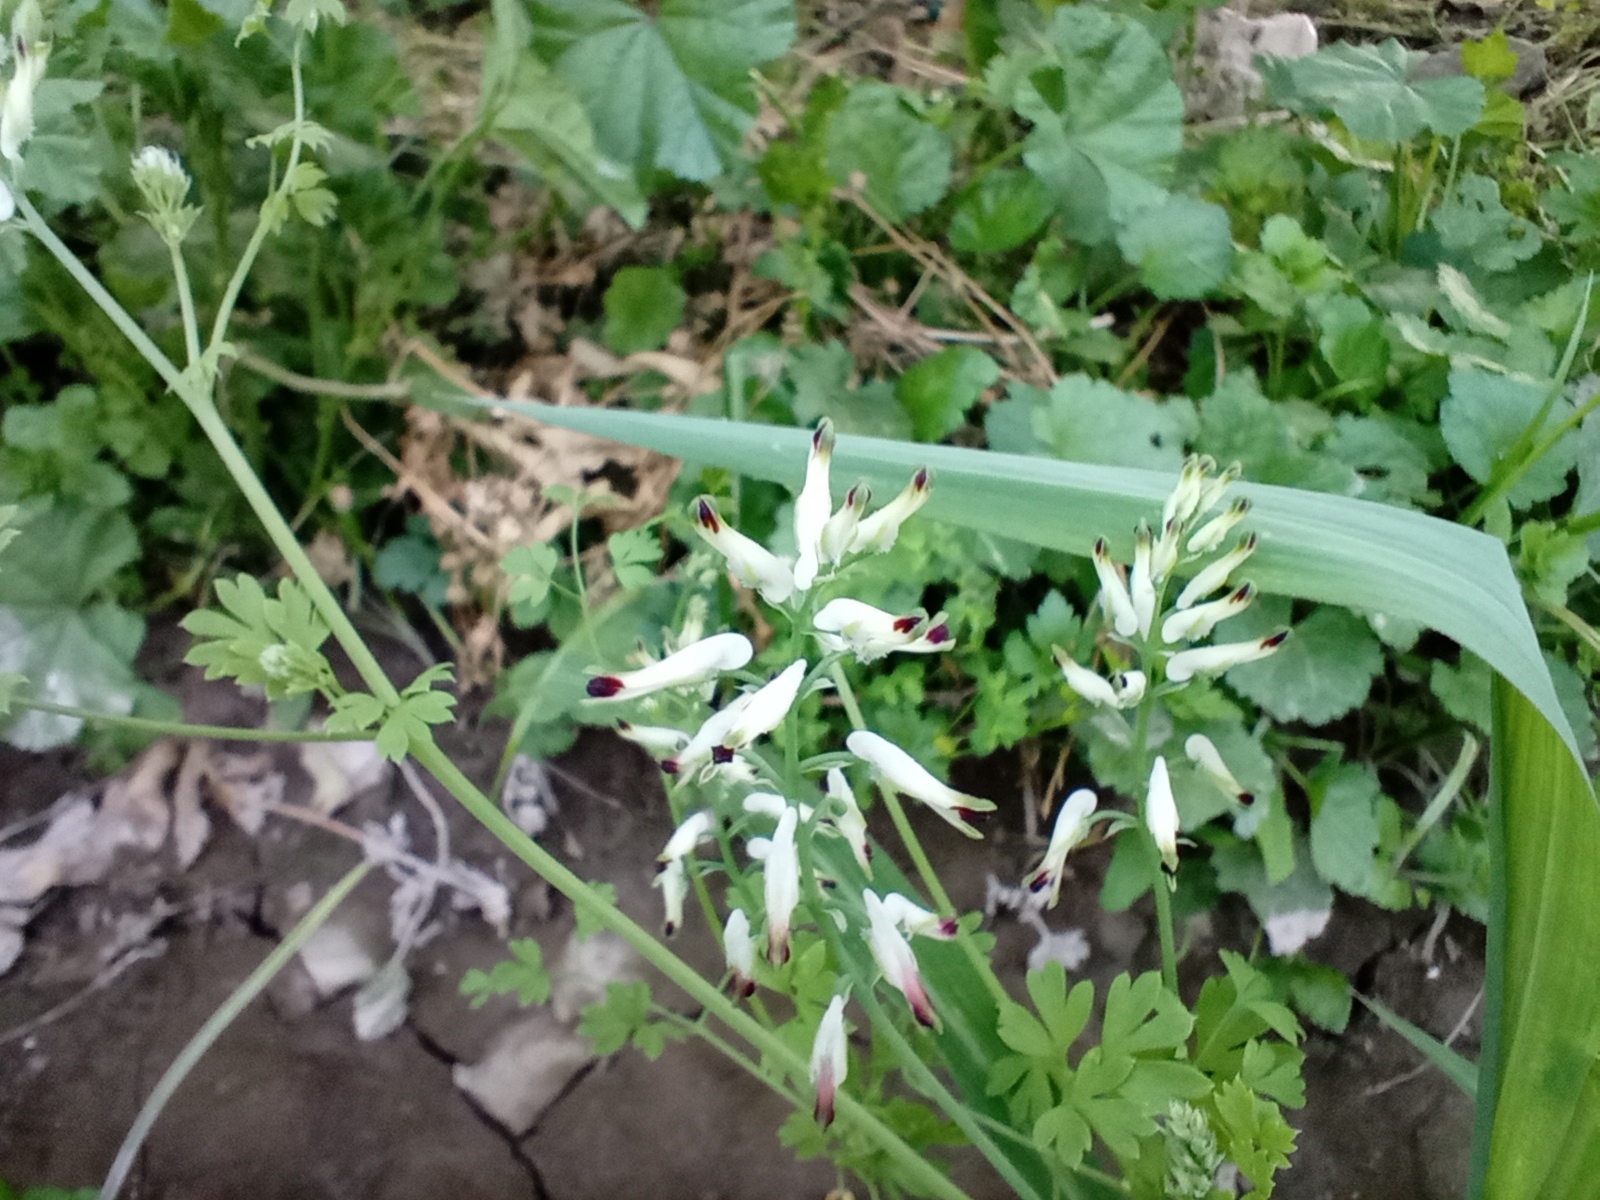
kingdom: Plantae
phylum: Tracheophyta
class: Magnoliopsida
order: Ranunculales
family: Papaveraceae
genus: Fumaria
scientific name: Fumaria capreolata
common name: White ramping-fumitory
